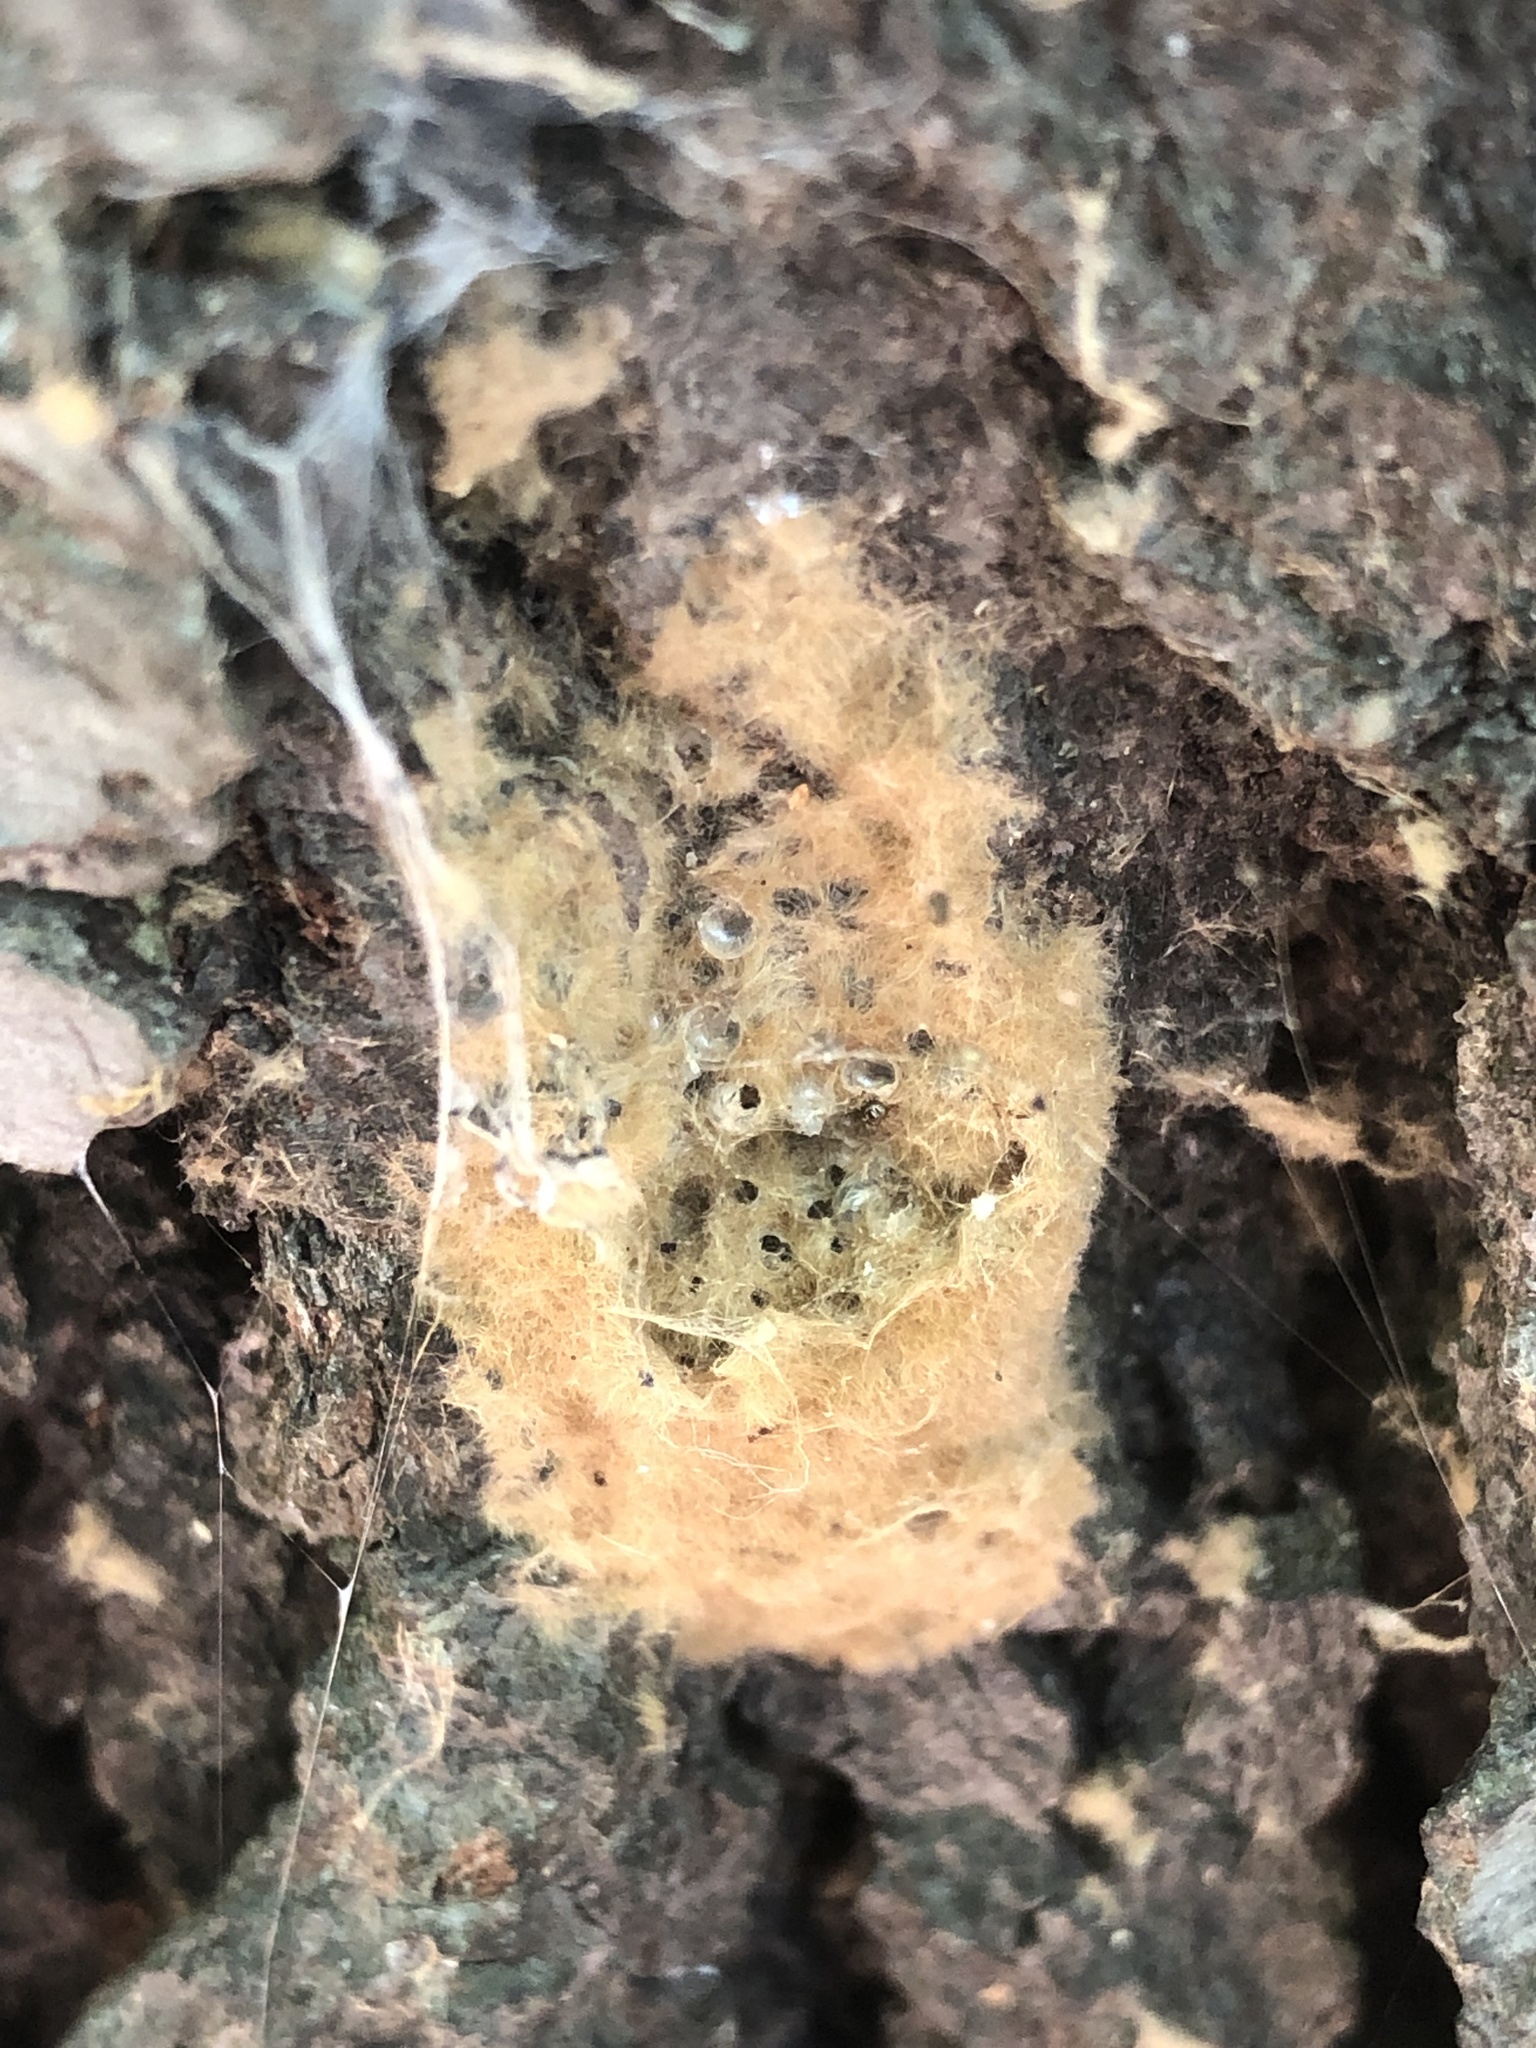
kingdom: Animalia
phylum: Arthropoda
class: Insecta
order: Lepidoptera
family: Erebidae
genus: Lymantria
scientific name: Lymantria dispar
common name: Gypsy moth
